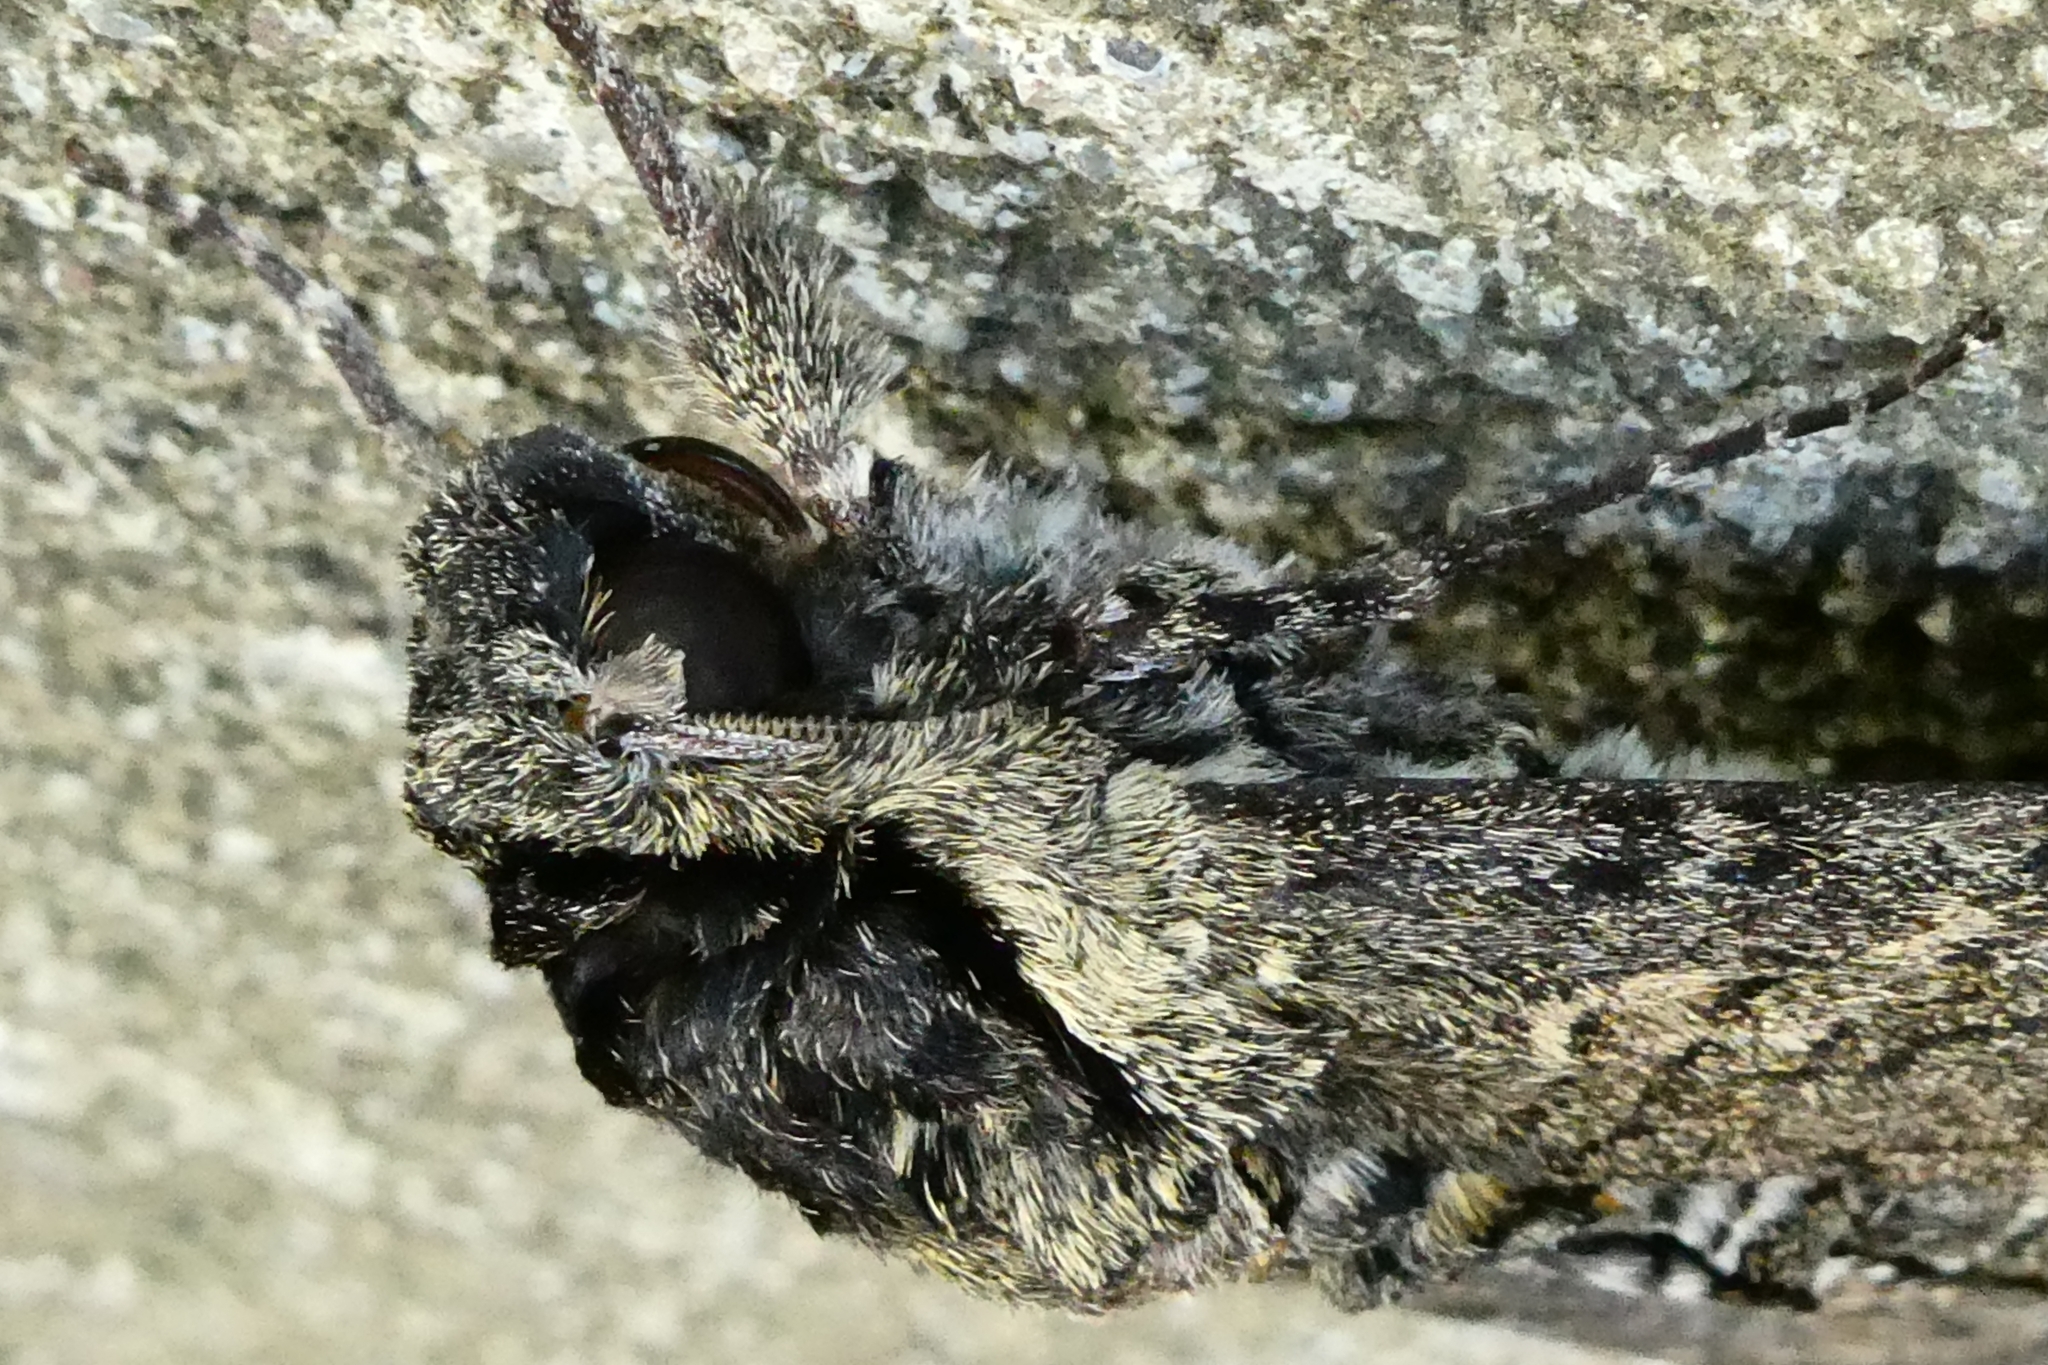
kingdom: Animalia
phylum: Arthropoda
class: Insecta
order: Lepidoptera
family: Sphingidae
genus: Manduca
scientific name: Manduca occulta
